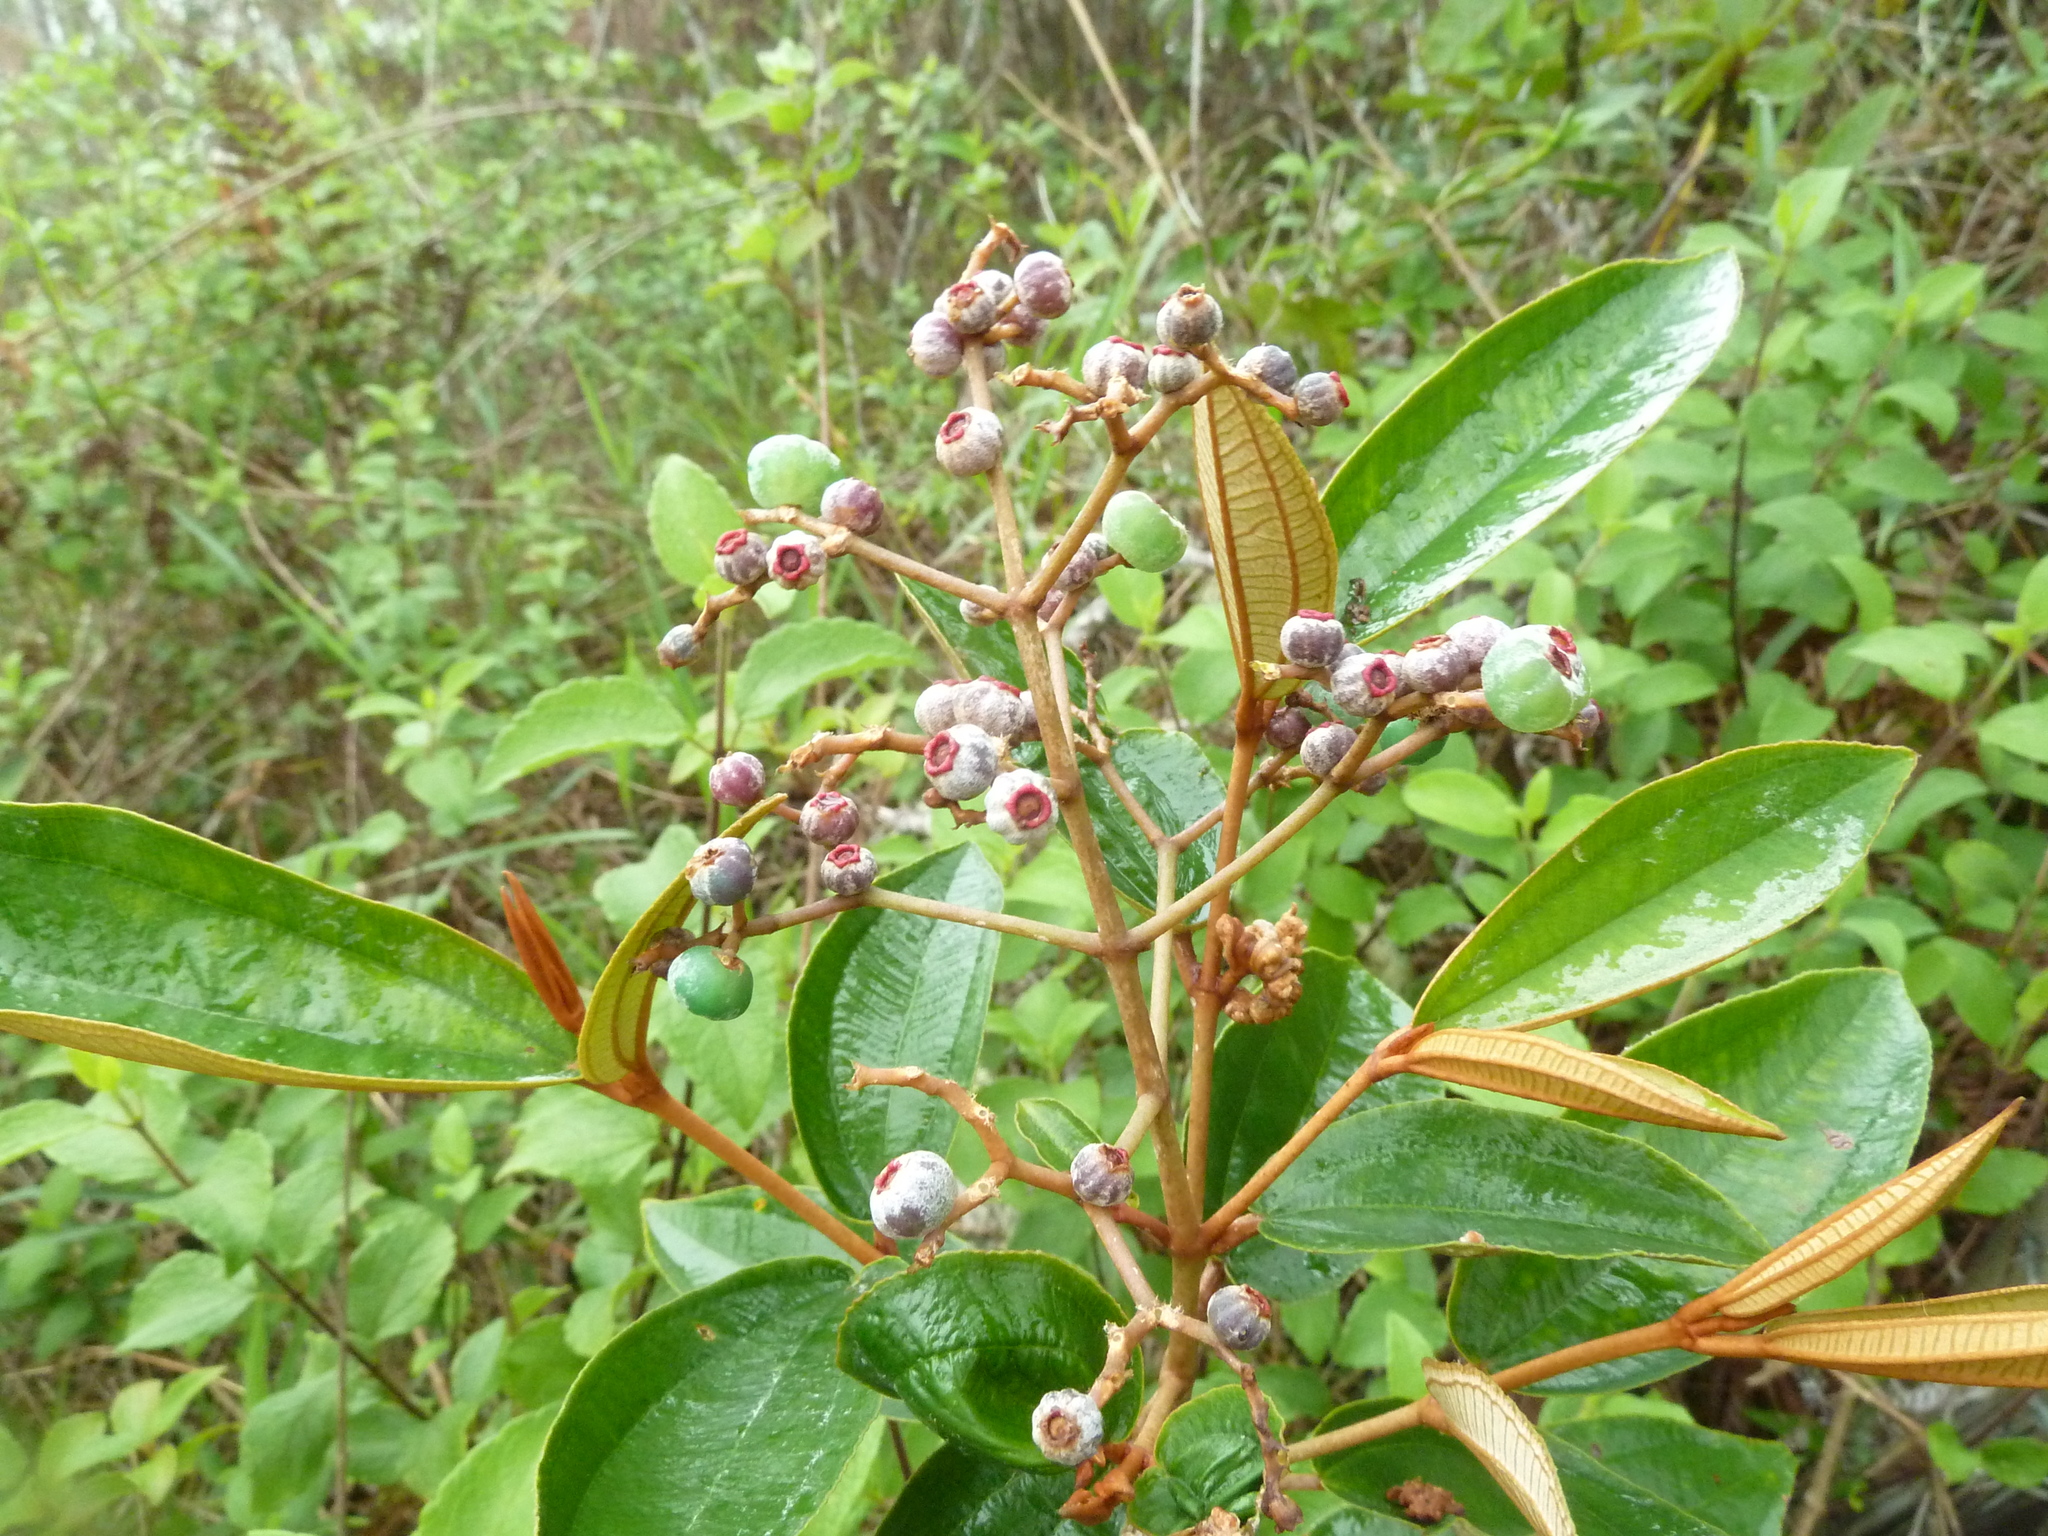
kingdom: Plantae
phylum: Tracheophyta
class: Magnoliopsida
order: Myrtales
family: Melastomataceae
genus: Miconia
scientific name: Miconia albicans
